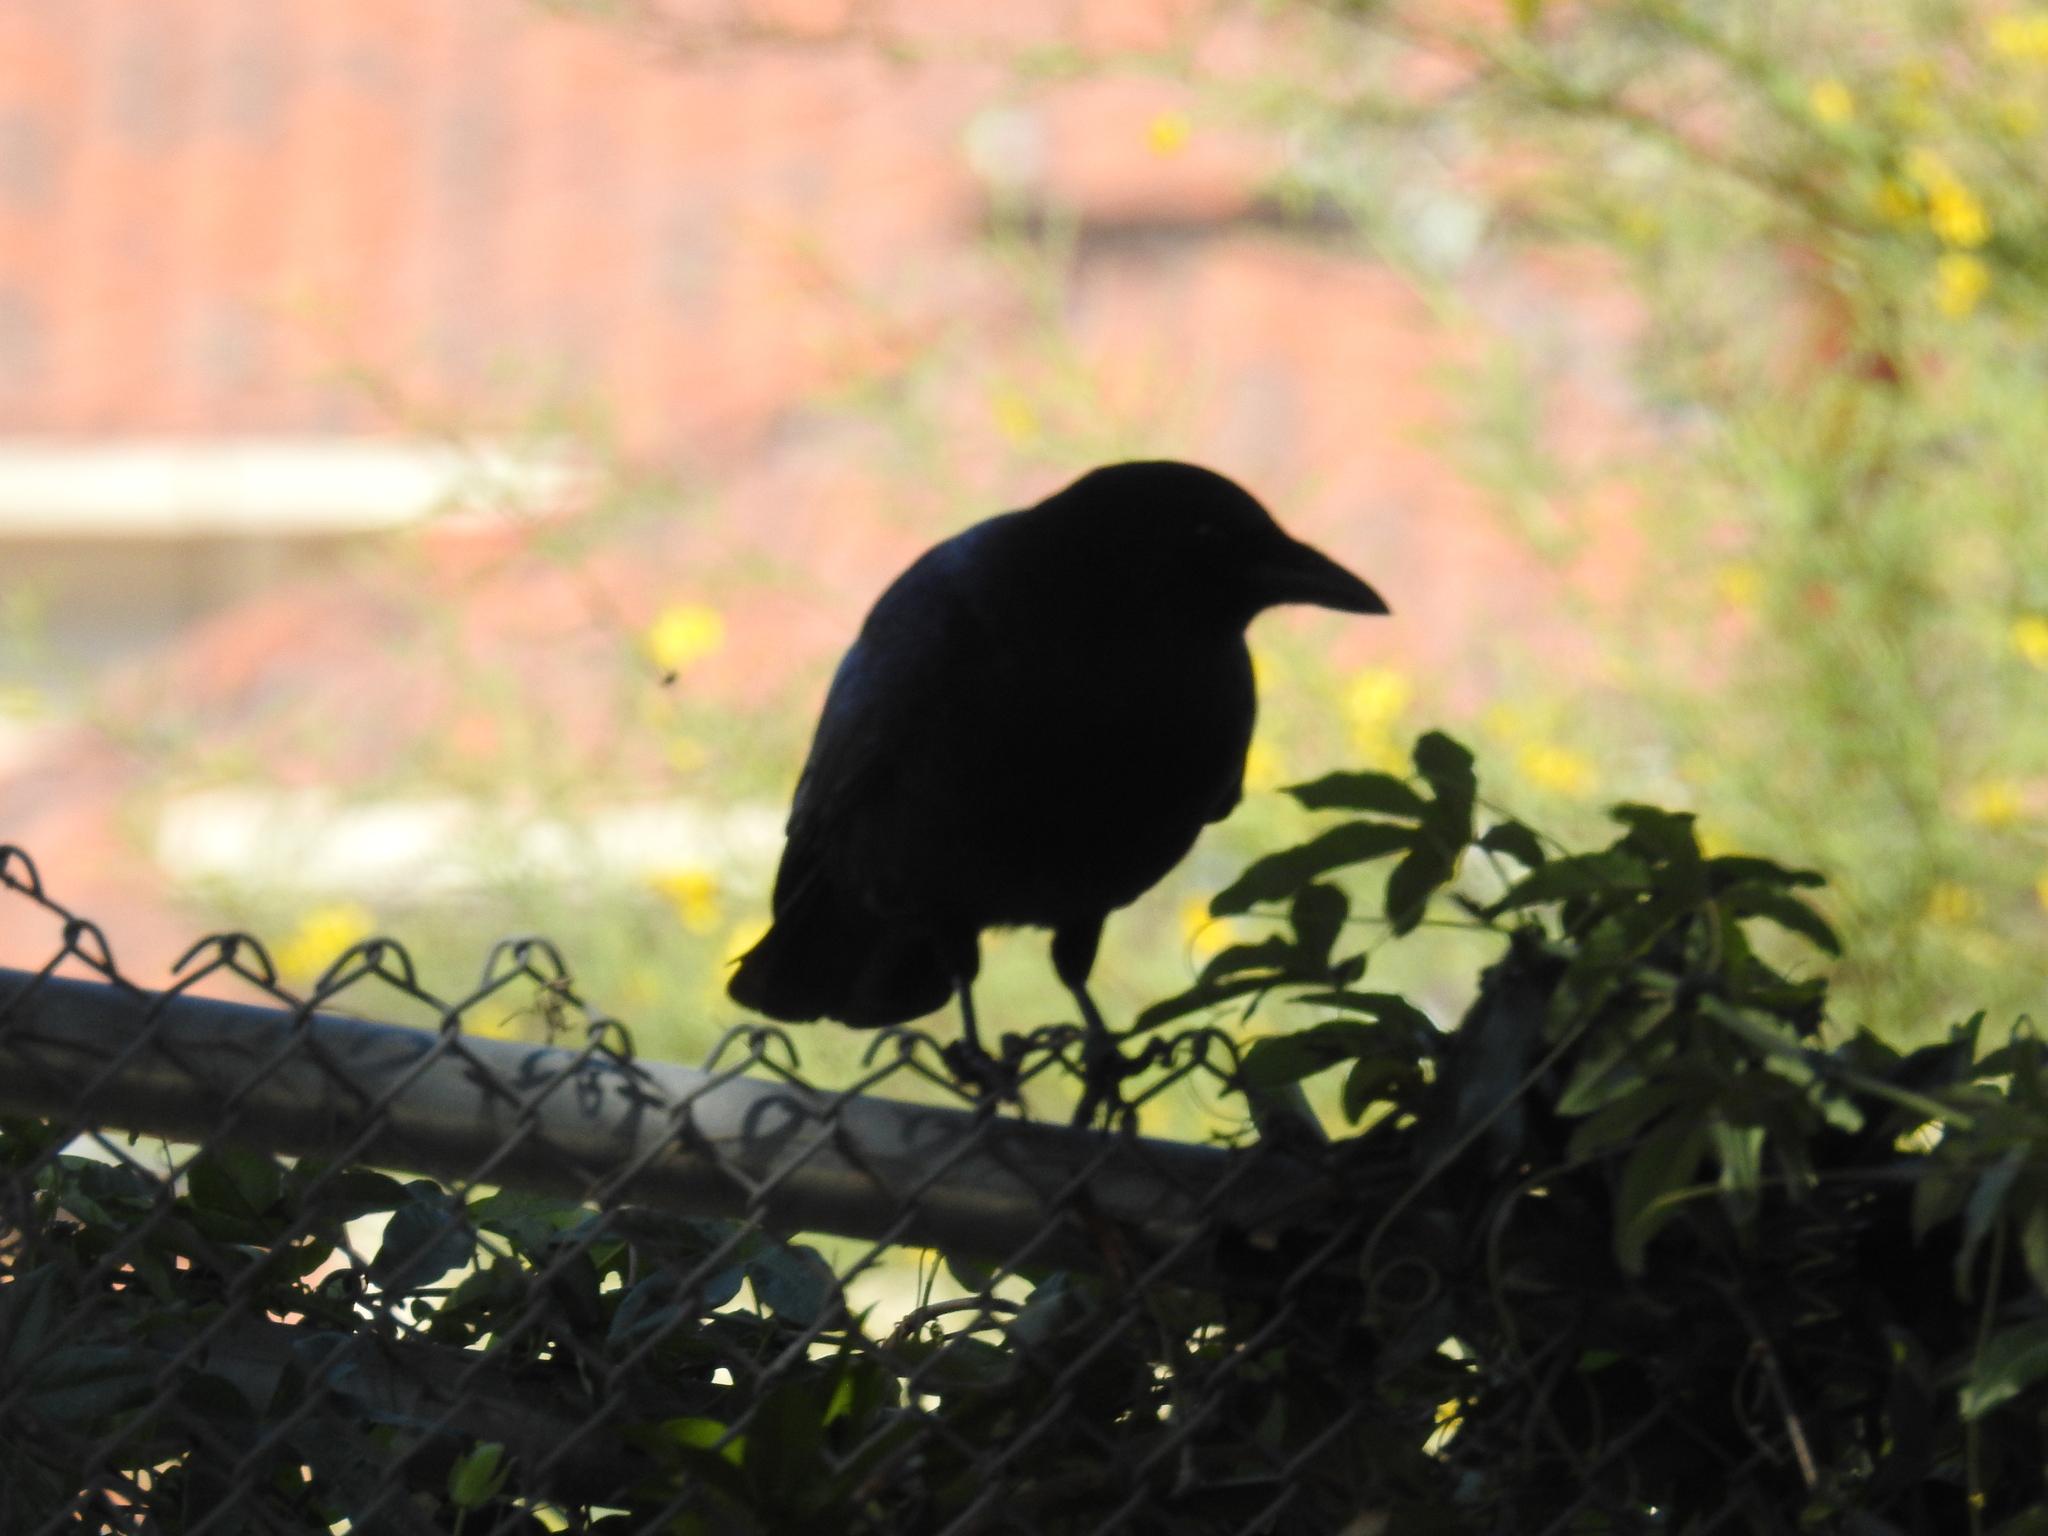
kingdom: Animalia
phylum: Chordata
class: Aves
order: Passeriformes
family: Corvidae
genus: Corvus
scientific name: Corvus brachyrhynchos
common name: American crow
